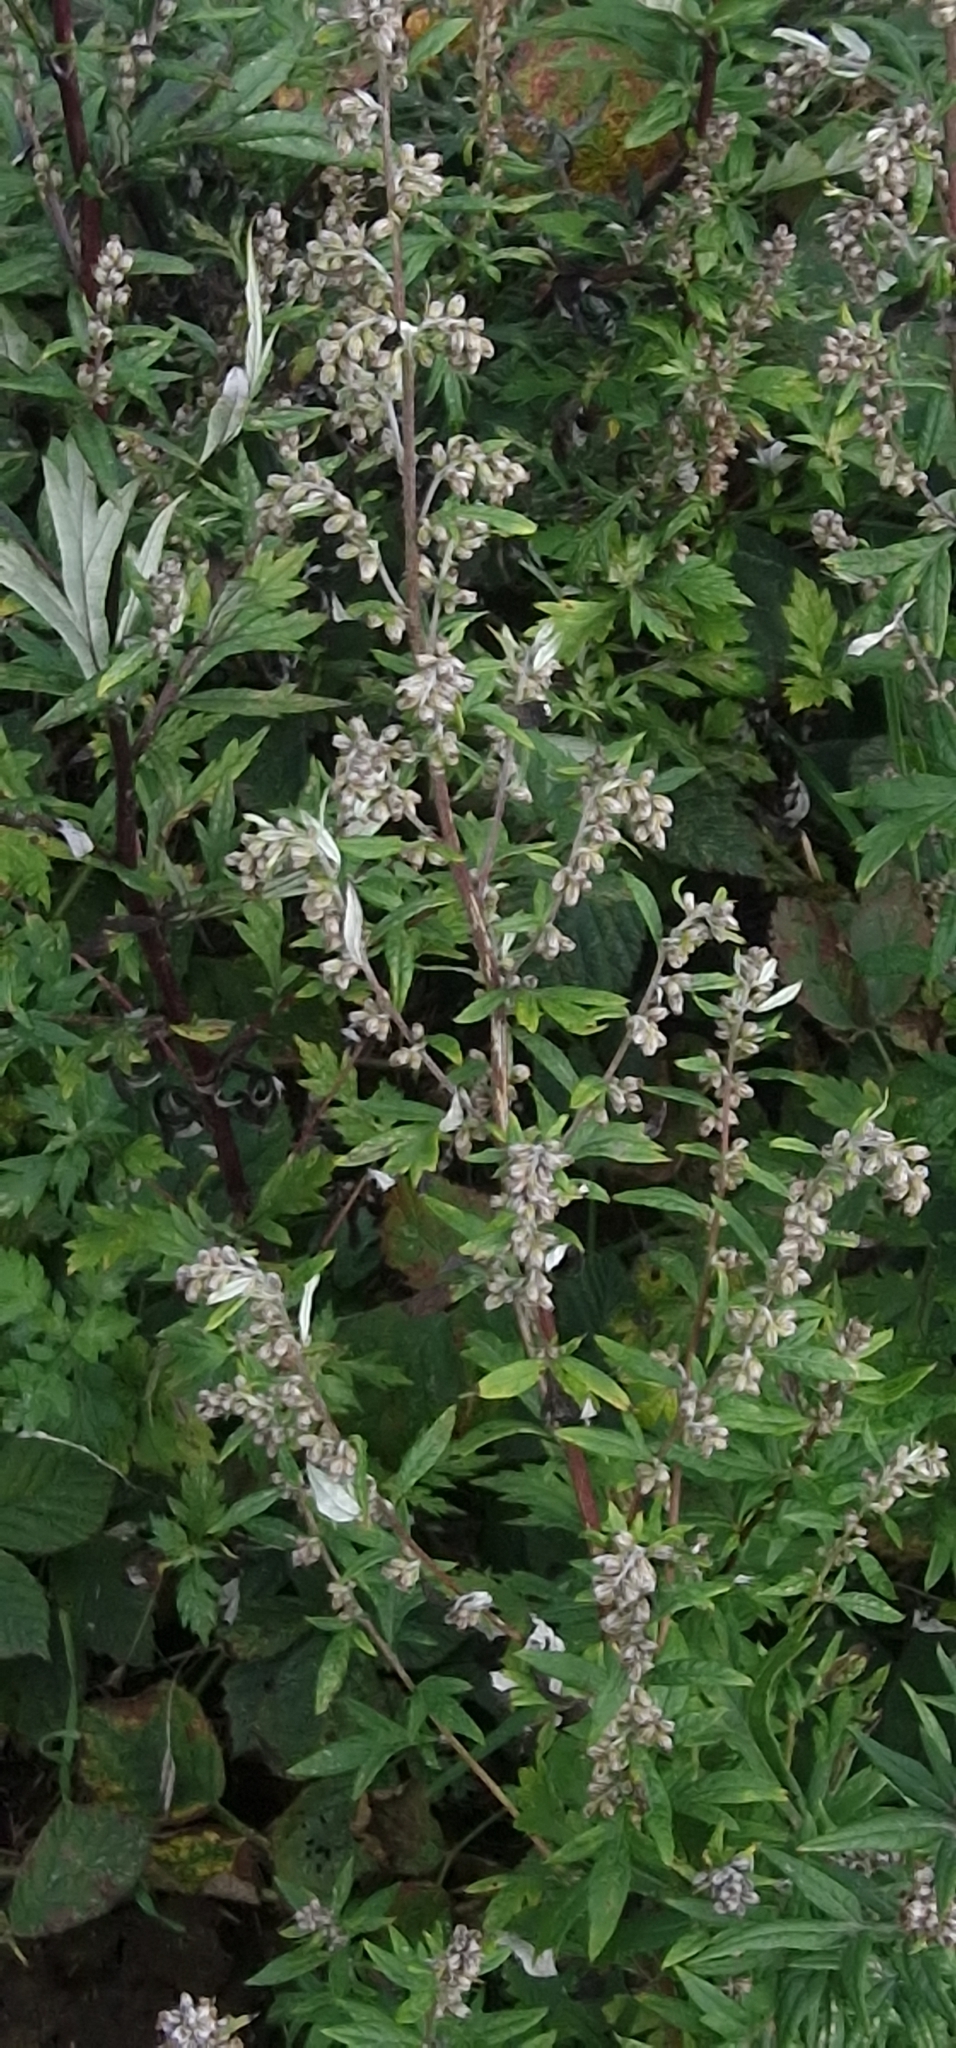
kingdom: Plantae
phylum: Tracheophyta
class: Magnoliopsida
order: Asterales
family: Asteraceae
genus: Artemisia
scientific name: Artemisia vulgaris
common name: Mugwort
